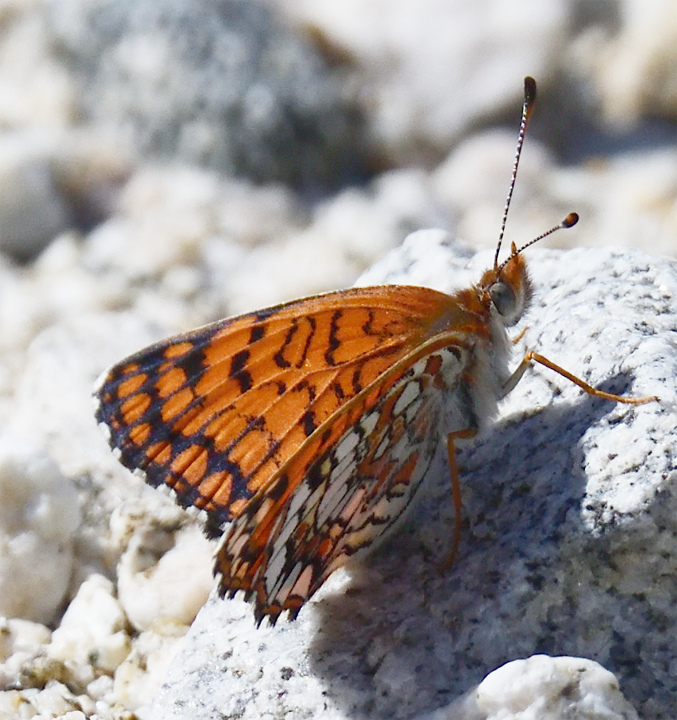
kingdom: Animalia
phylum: Arthropoda
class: Insecta
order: Lepidoptera
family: Nymphalidae
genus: Chlosyne
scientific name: Chlosyne acastus
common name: Sagebrush checkerspot
